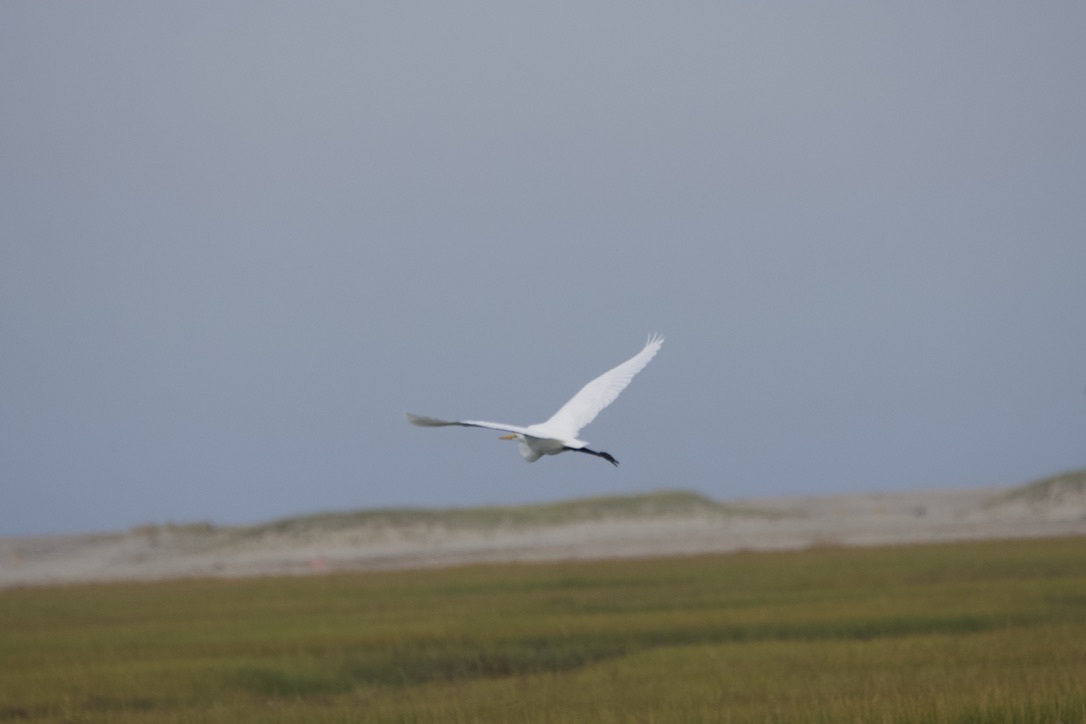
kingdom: Animalia
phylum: Chordata
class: Aves
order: Pelecaniformes
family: Ardeidae
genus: Ardea
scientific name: Ardea alba
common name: Great egret
